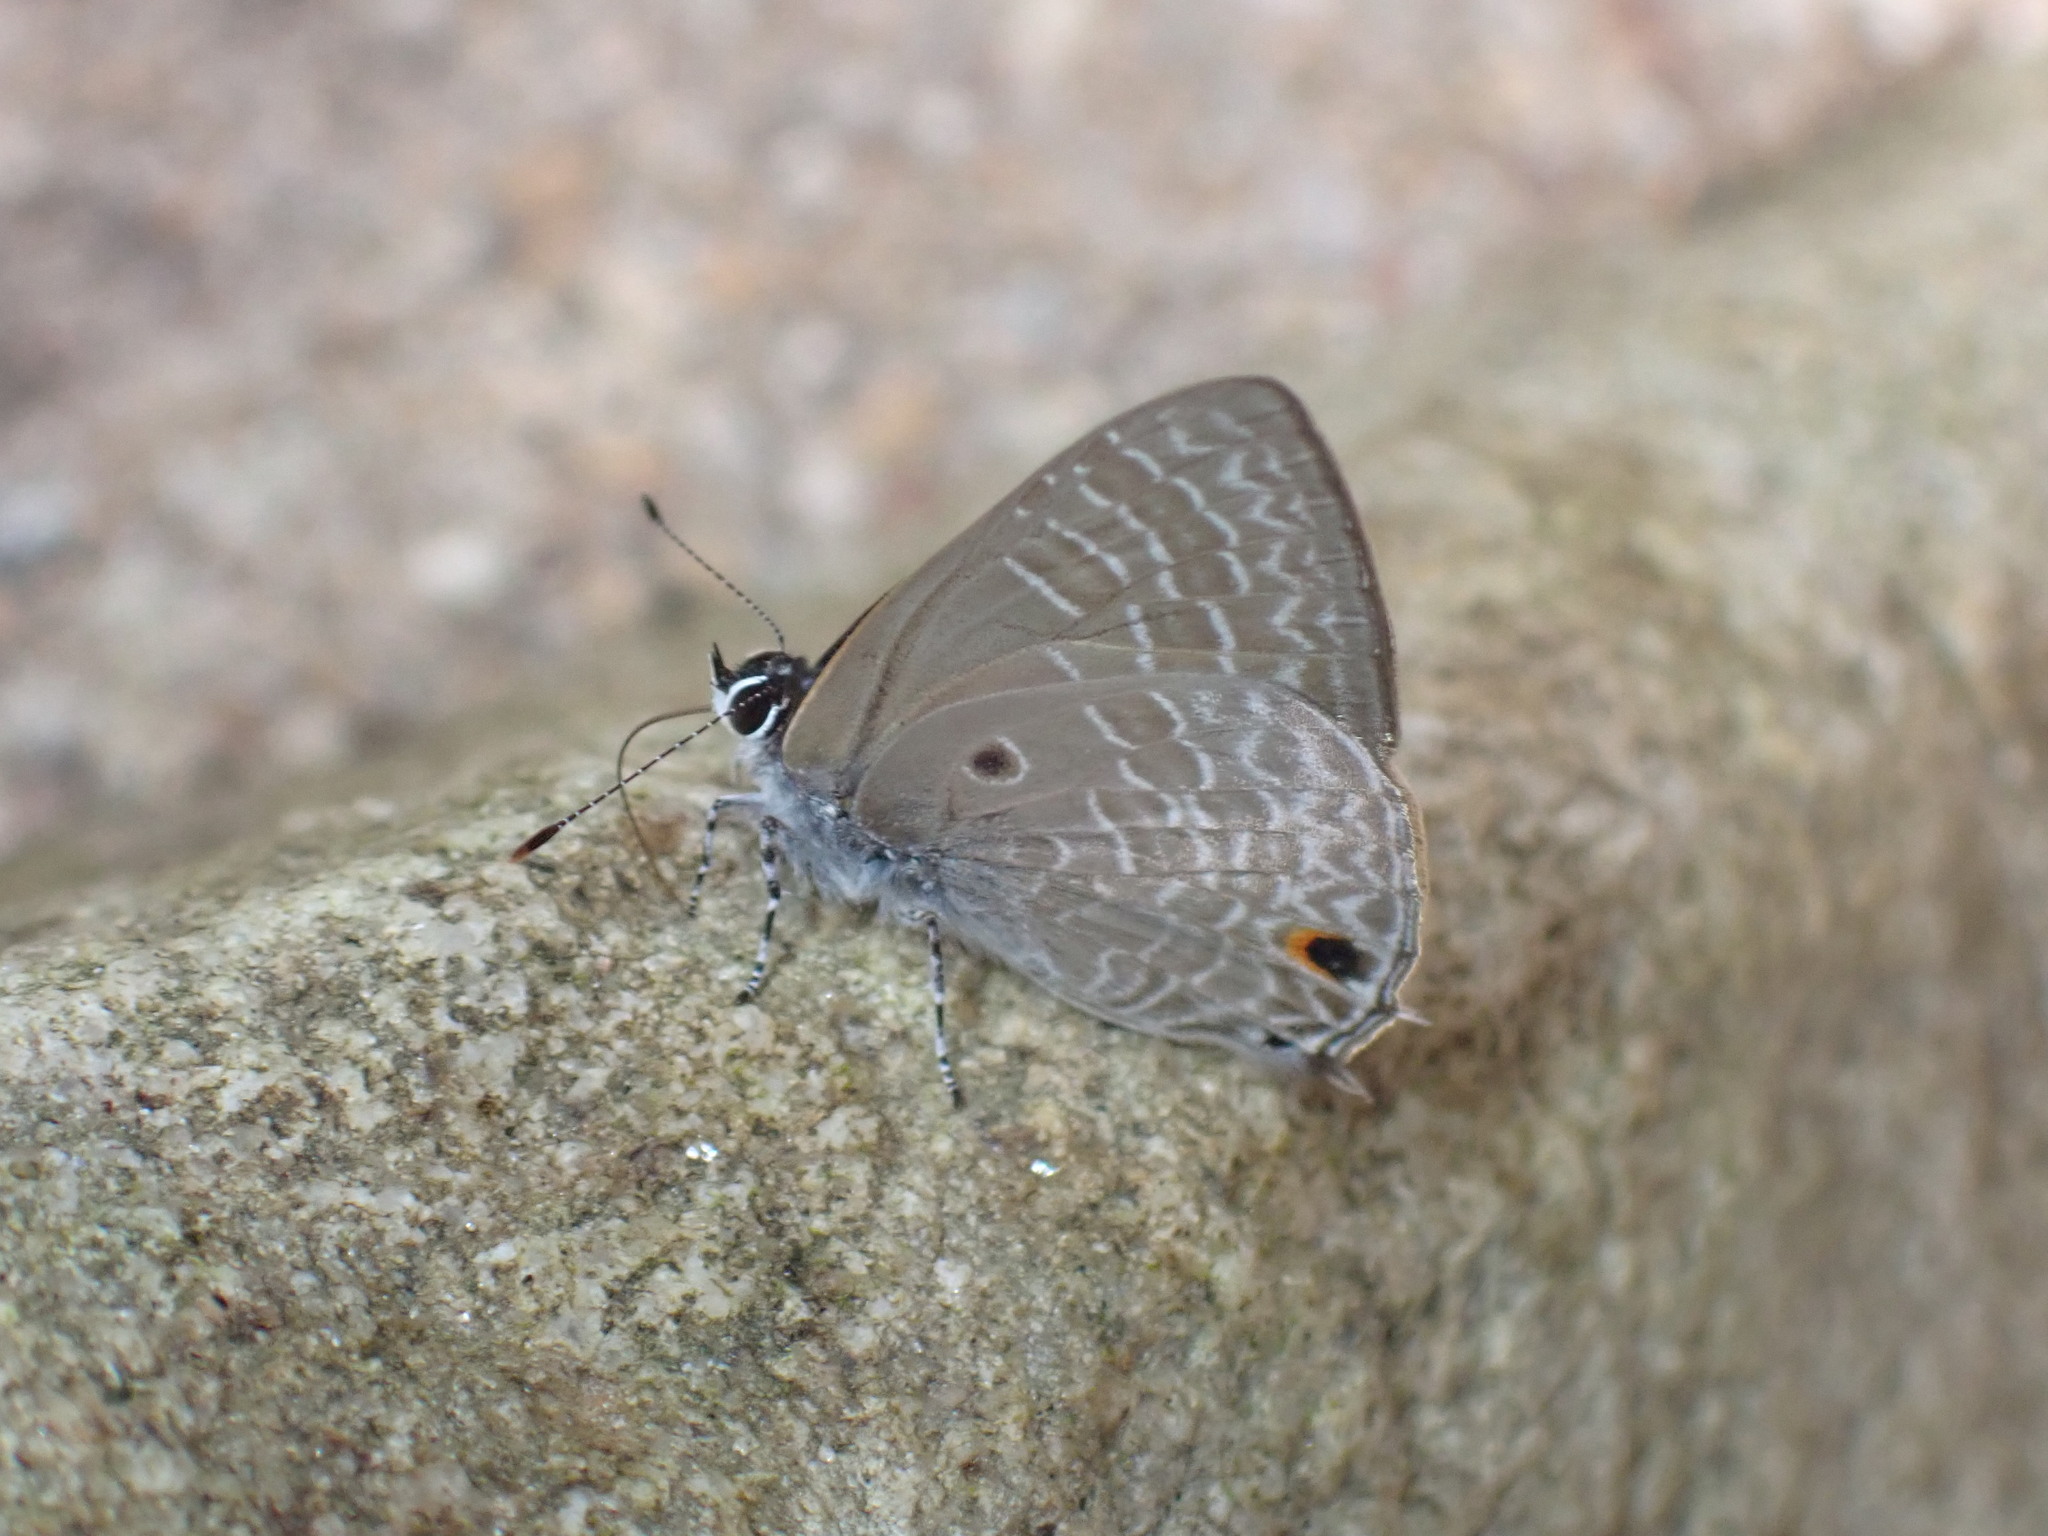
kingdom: Animalia
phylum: Arthropoda
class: Insecta
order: Lepidoptera
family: Lycaenidae
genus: Anthene
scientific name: Anthene lycaenina
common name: Pointed ciliate blue
